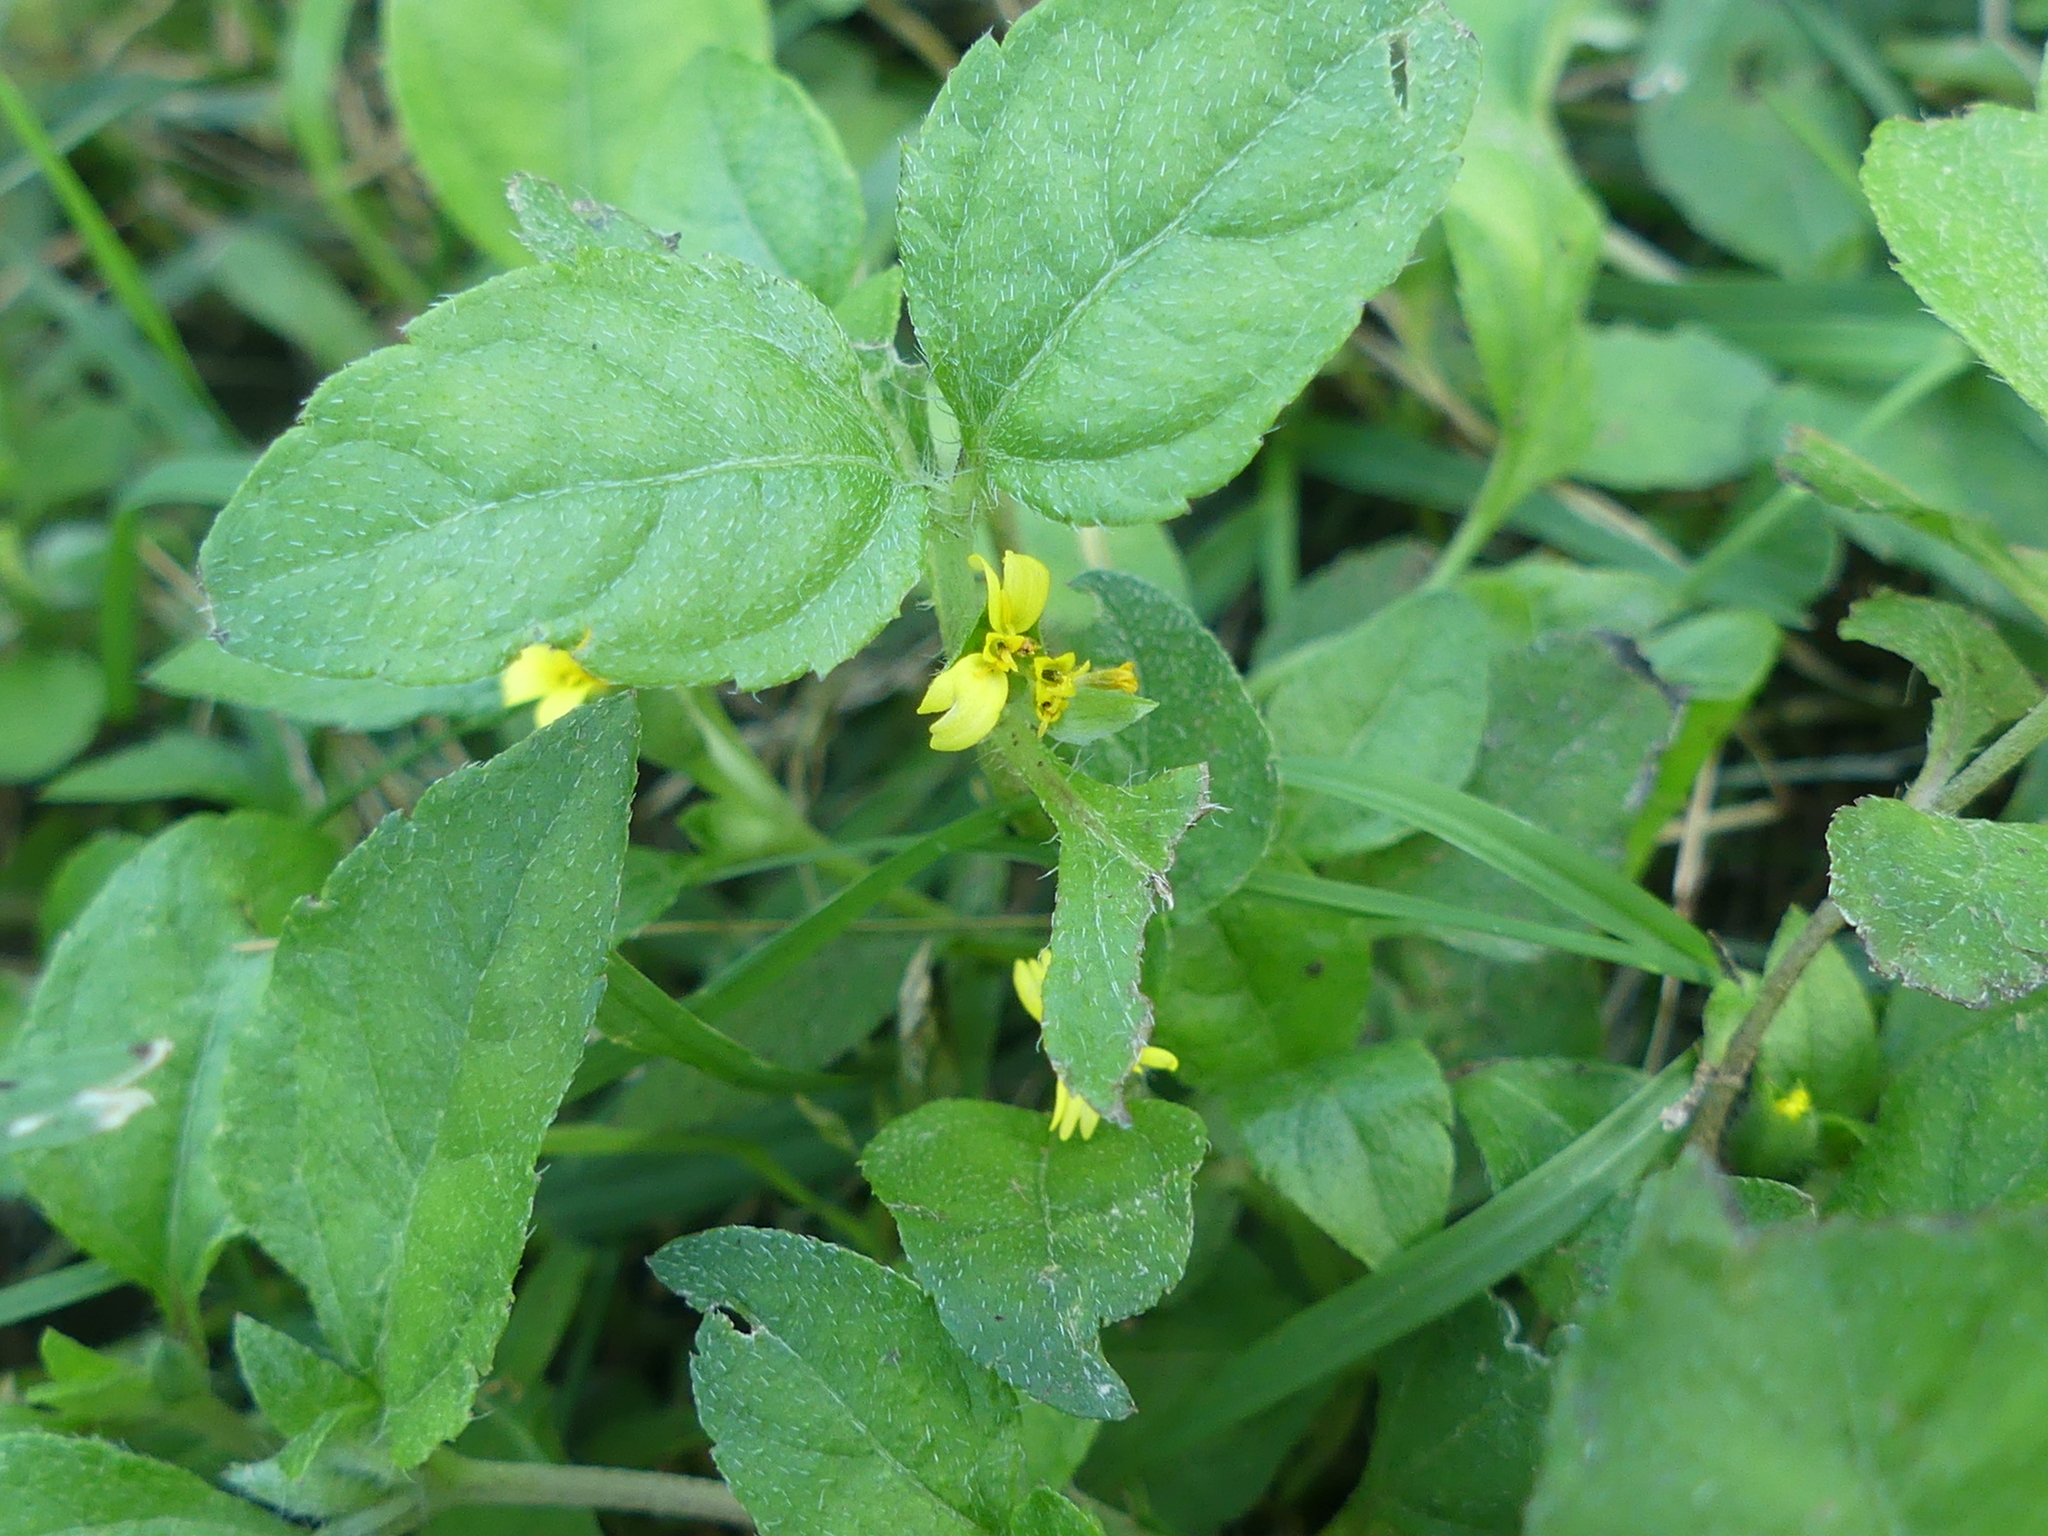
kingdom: Plantae
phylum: Tracheophyta
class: Magnoliopsida
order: Asterales
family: Asteraceae
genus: Calyptocarpus
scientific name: Calyptocarpus vialis
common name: Straggler daisy
